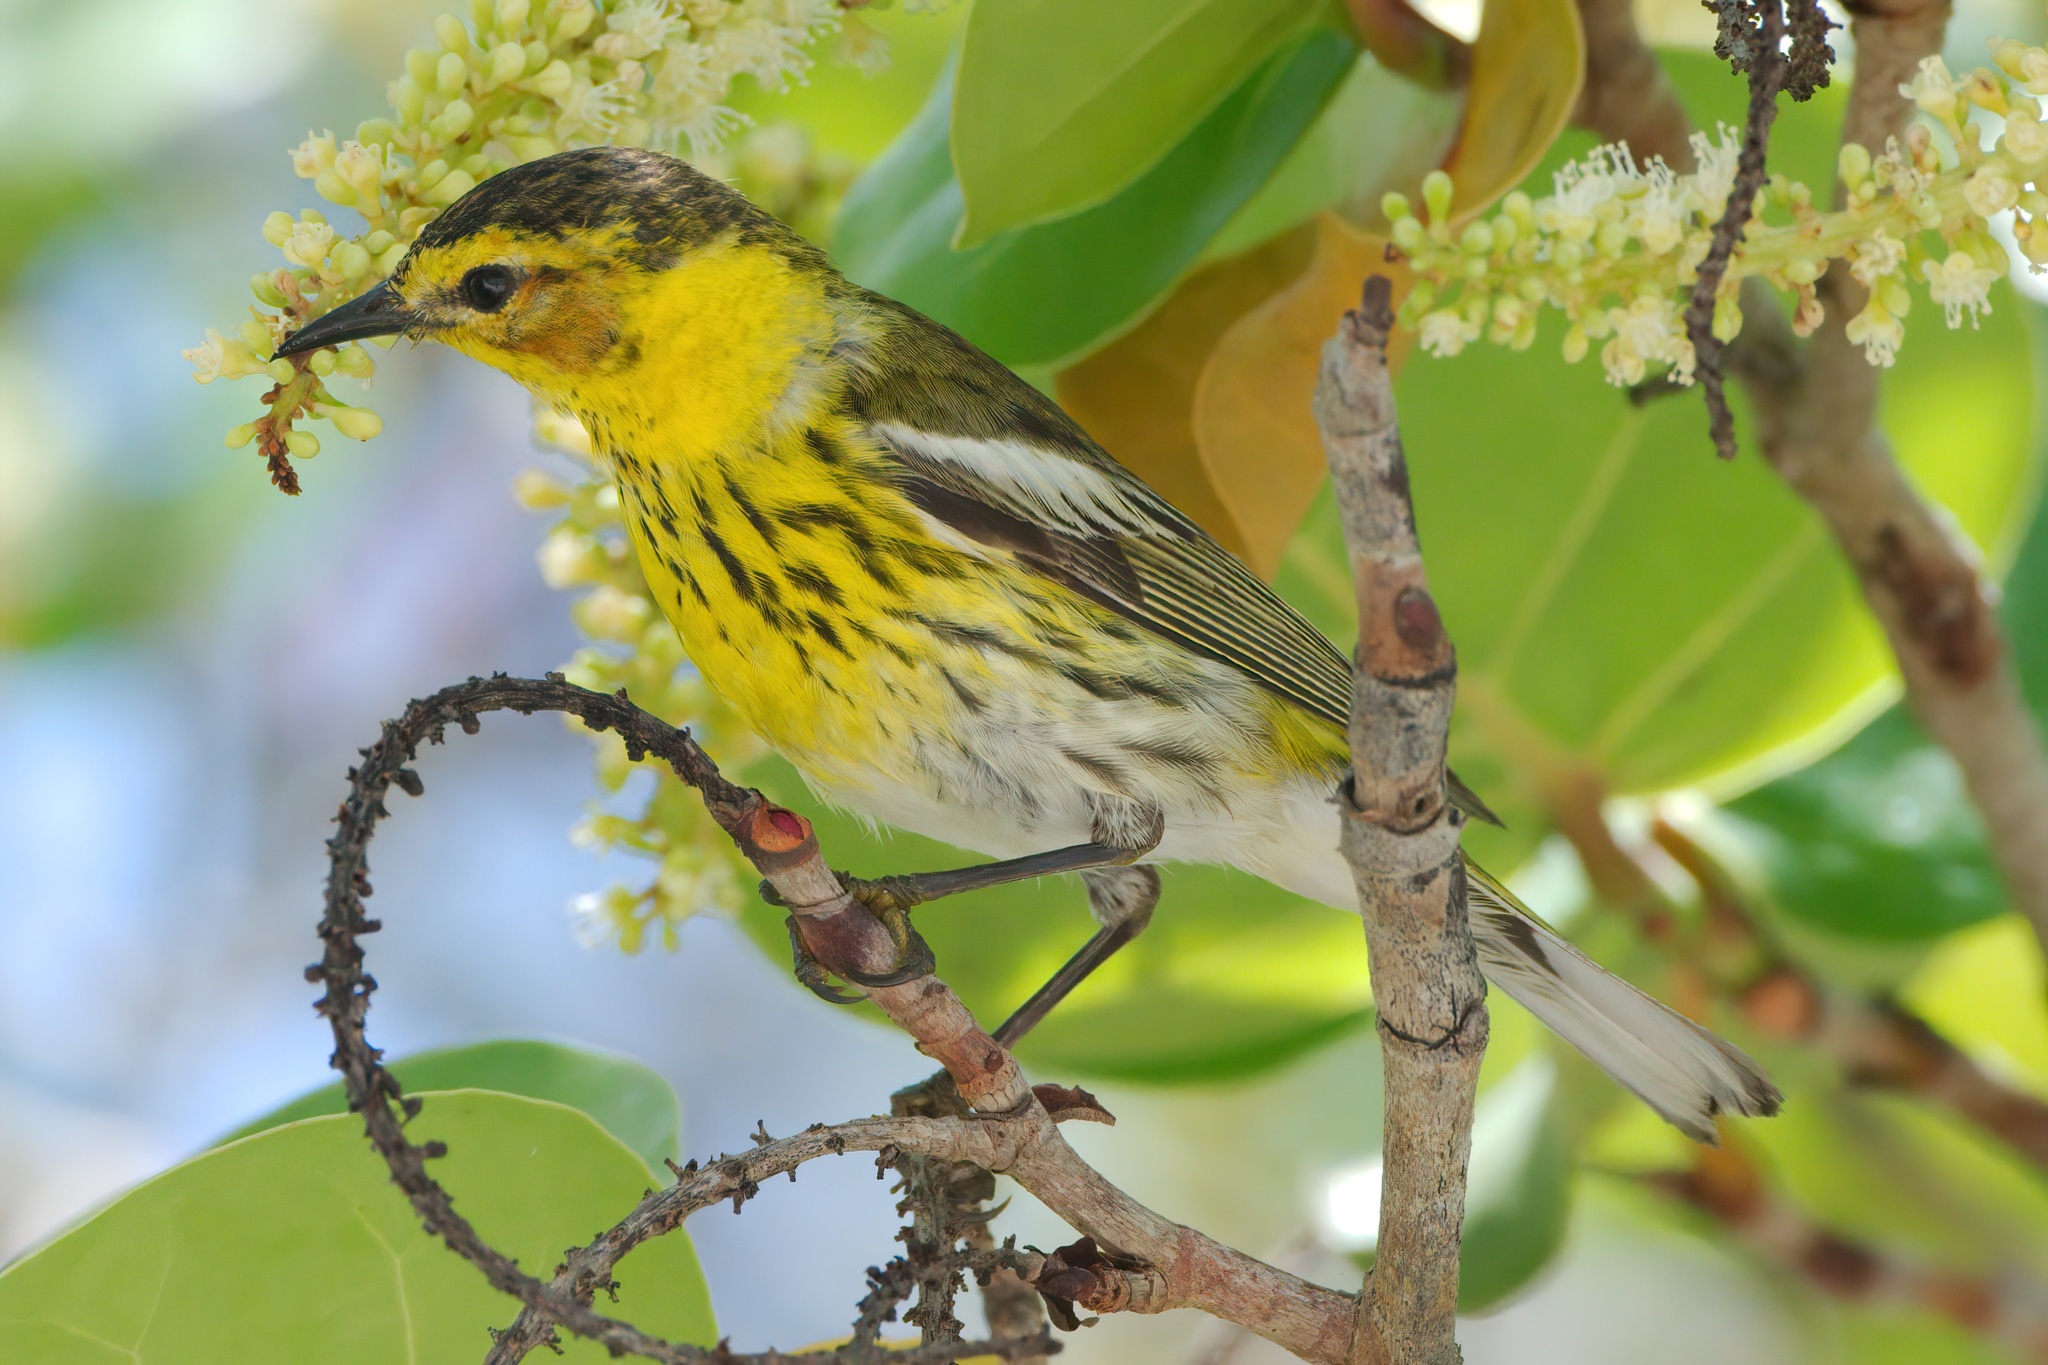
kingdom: Animalia
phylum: Chordata
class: Aves
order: Passeriformes
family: Parulidae
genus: Setophaga
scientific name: Setophaga tigrina
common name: Cape may warbler
